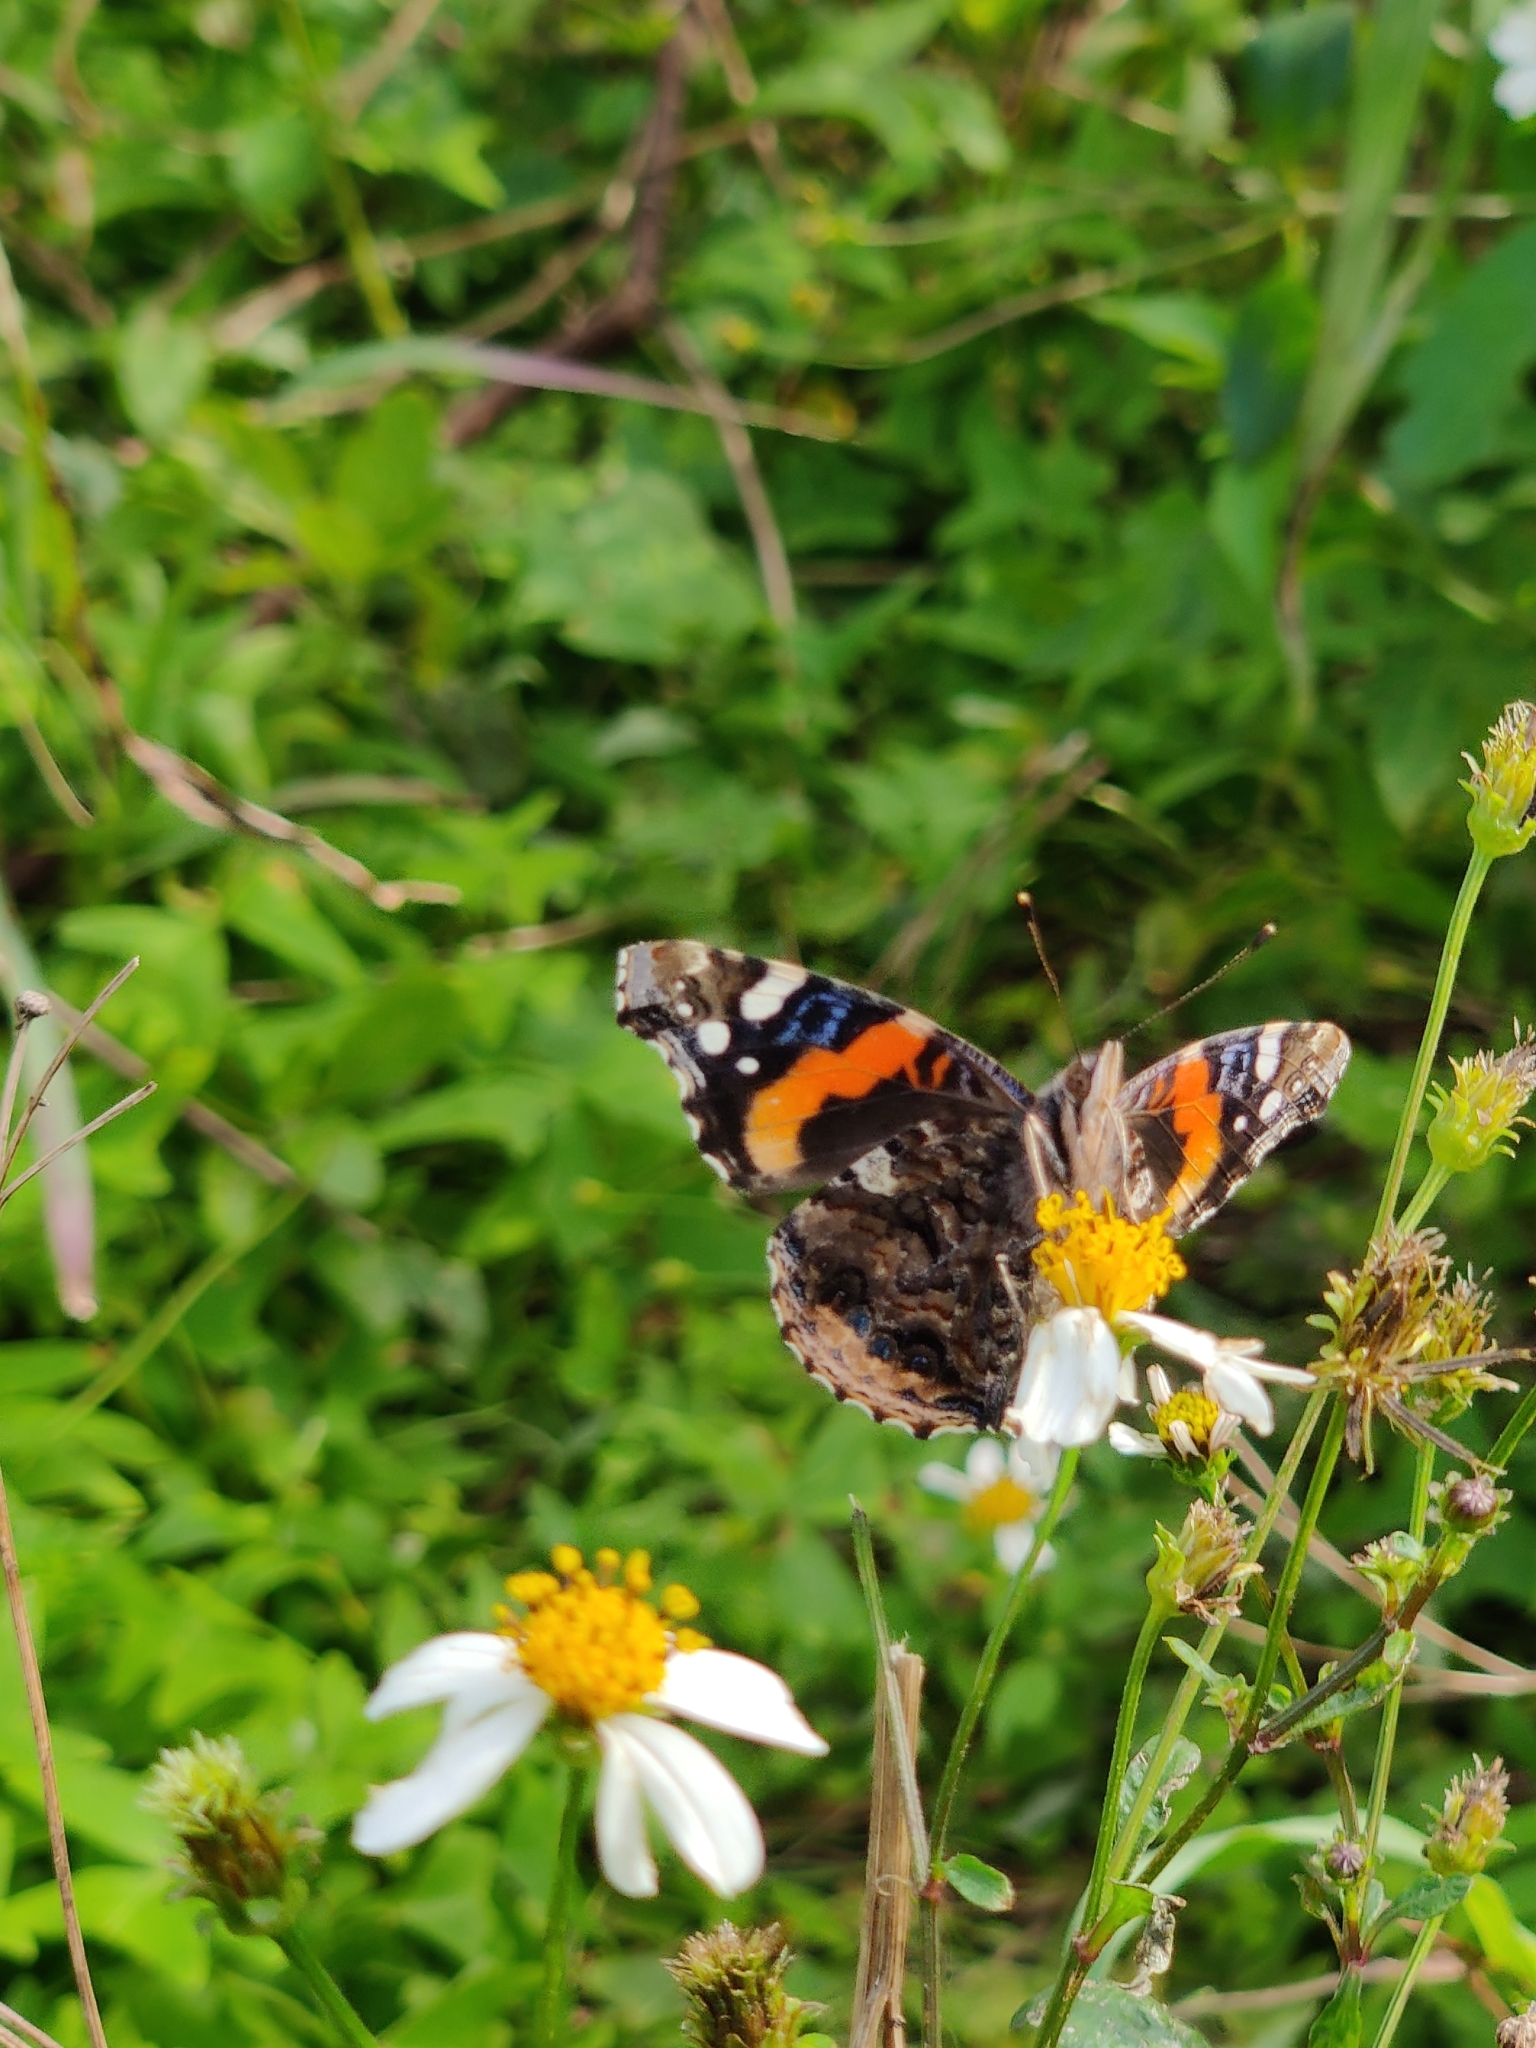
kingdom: Animalia
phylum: Arthropoda
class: Insecta
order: Lepidoptera
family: Nymphalidae
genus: Vanessa
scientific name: Vanessa atalanta
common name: Red admiral
